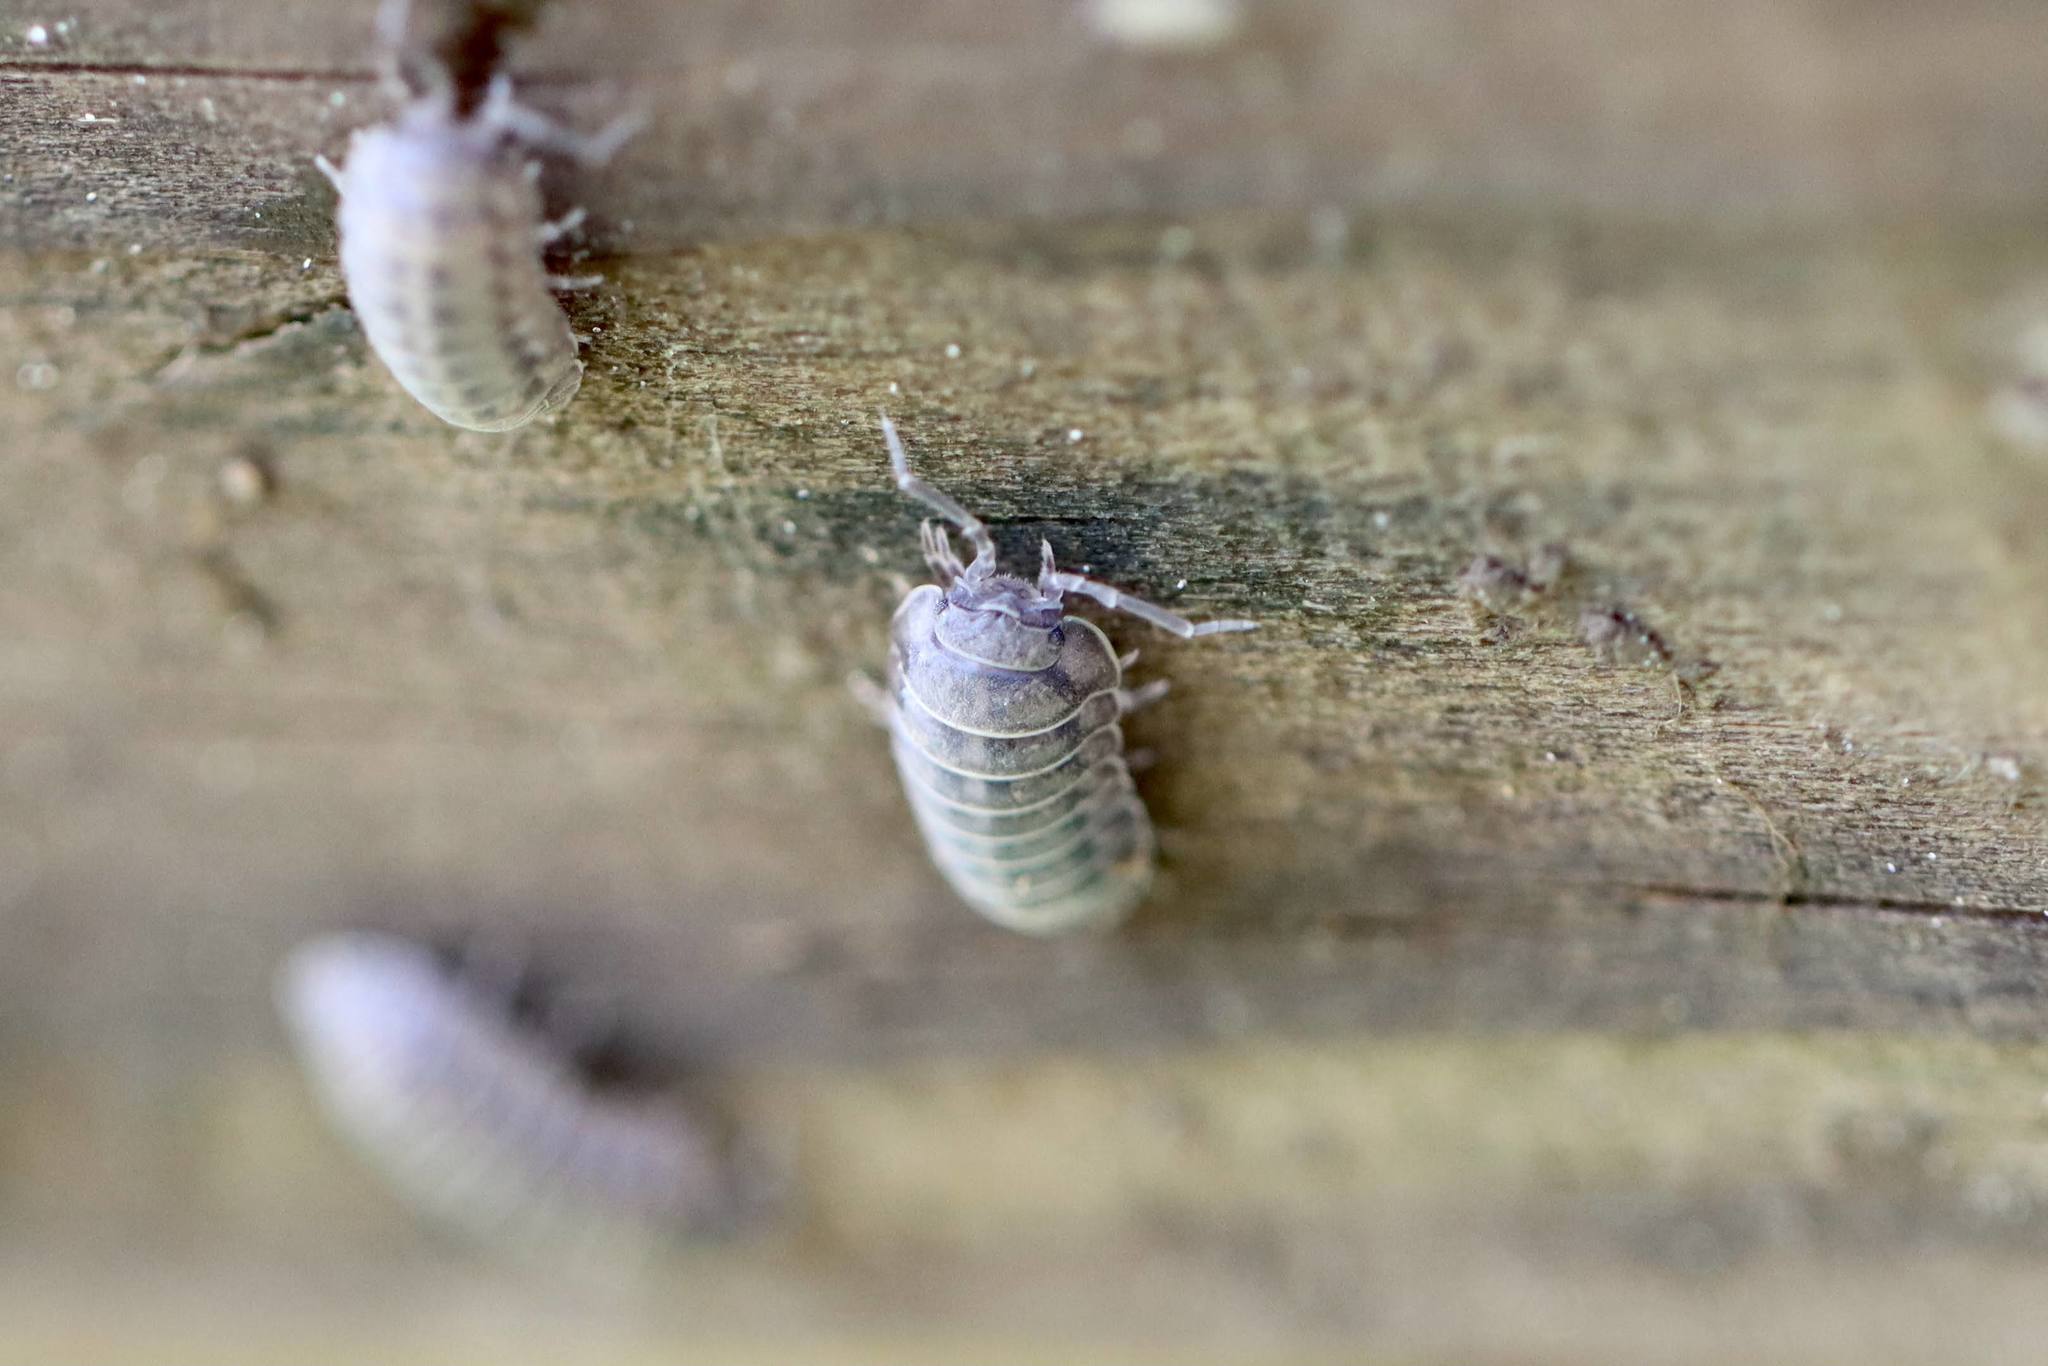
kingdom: Animalia
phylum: Arthropoda
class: Malacostraca
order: Isopoda
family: Armadillidiidae
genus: Armadillidium
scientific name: Armadillidium nasatum
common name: Isopod
